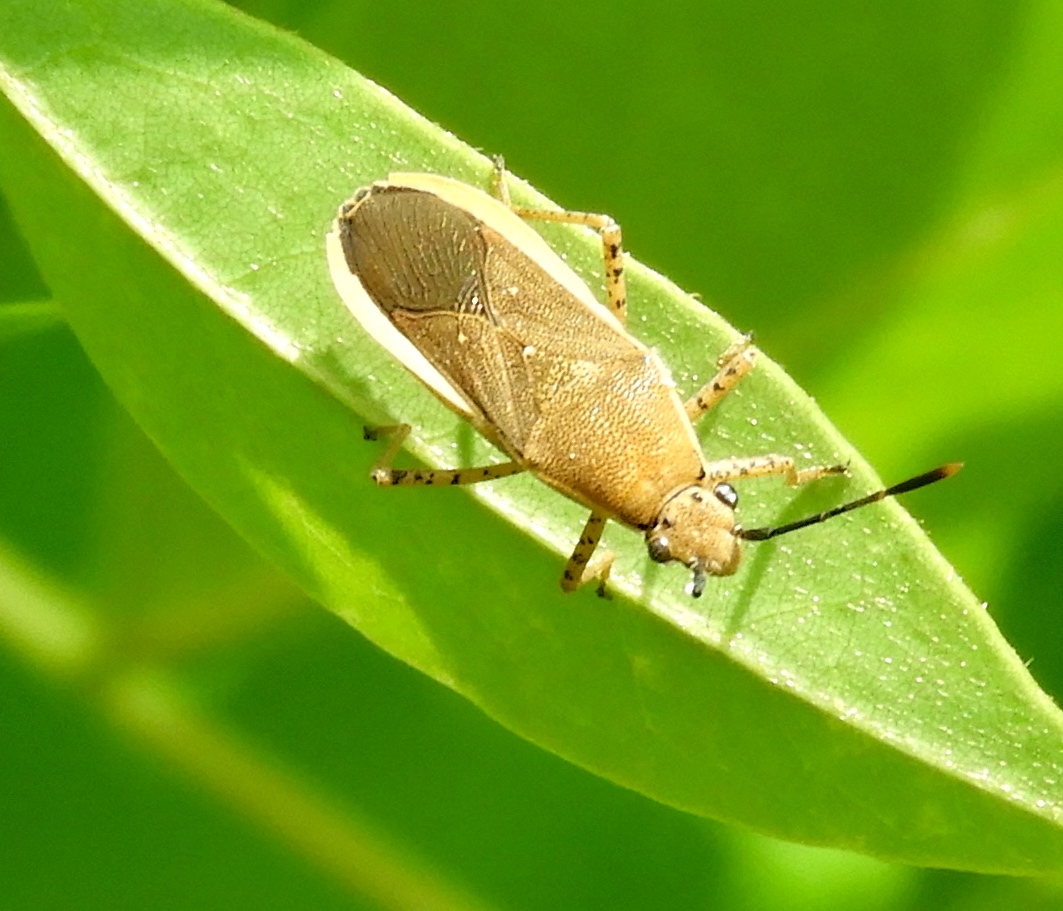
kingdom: Animalia
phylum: Arthropoda
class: Insecta
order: Hemiptera
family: Coreidae
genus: Catorhintha
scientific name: Catorhintha selector
